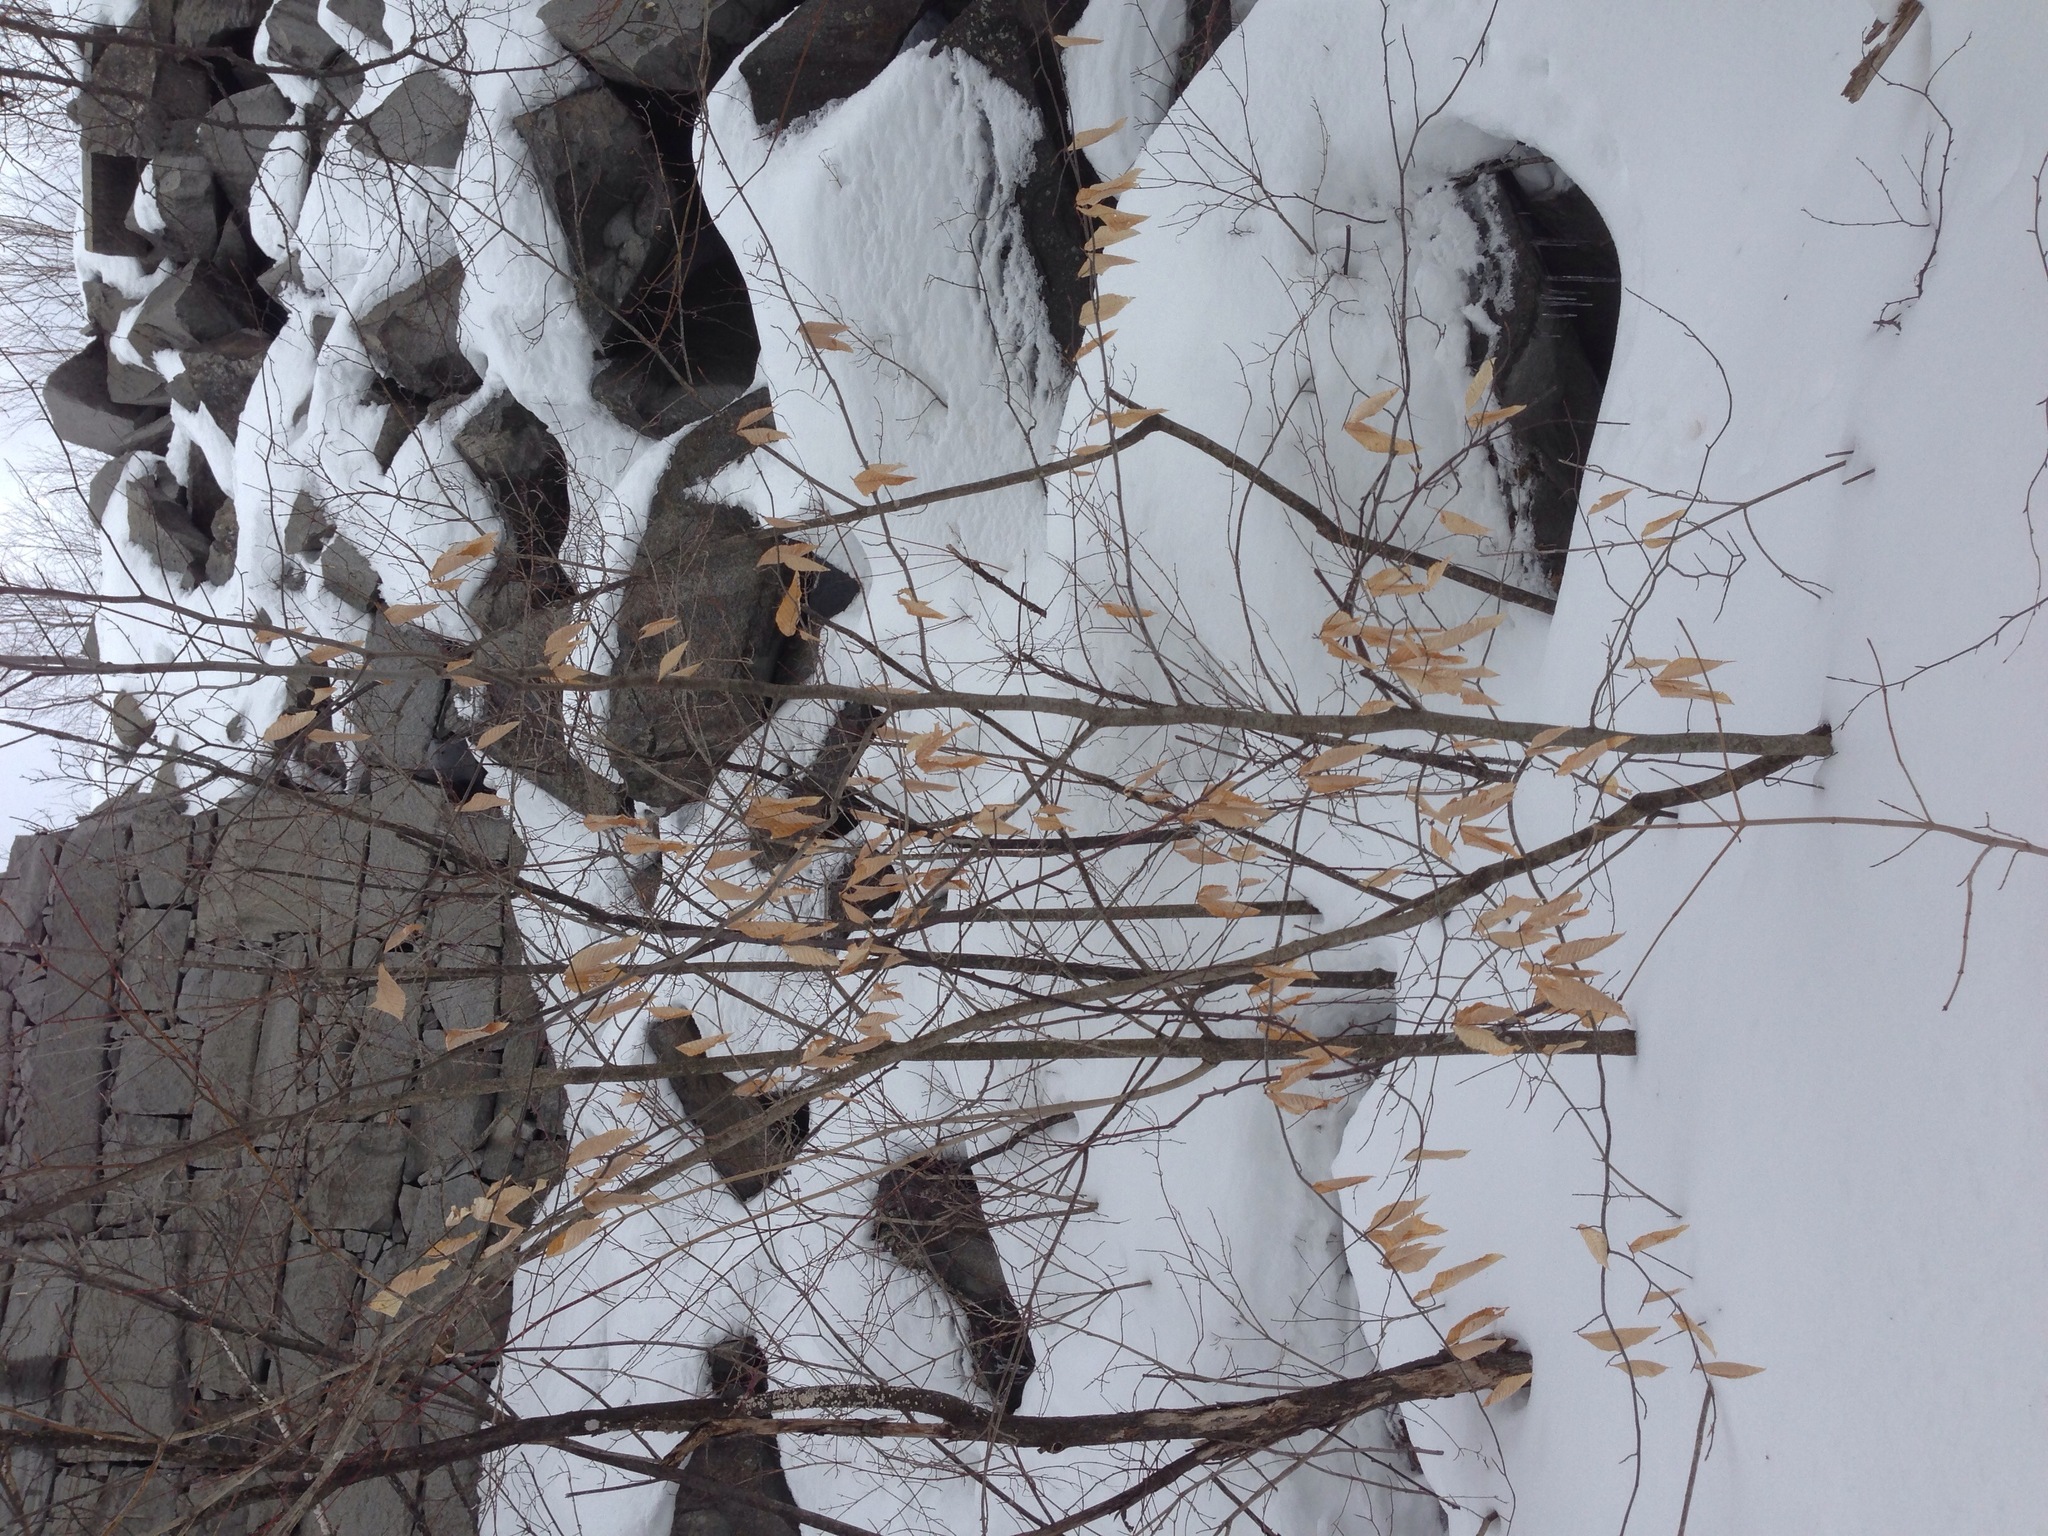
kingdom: Plantae
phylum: Tracheophyta
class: Magnoliopsida
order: Fagales
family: Fagaceae
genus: Fagus
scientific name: Fagus grandifolia
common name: American beech
